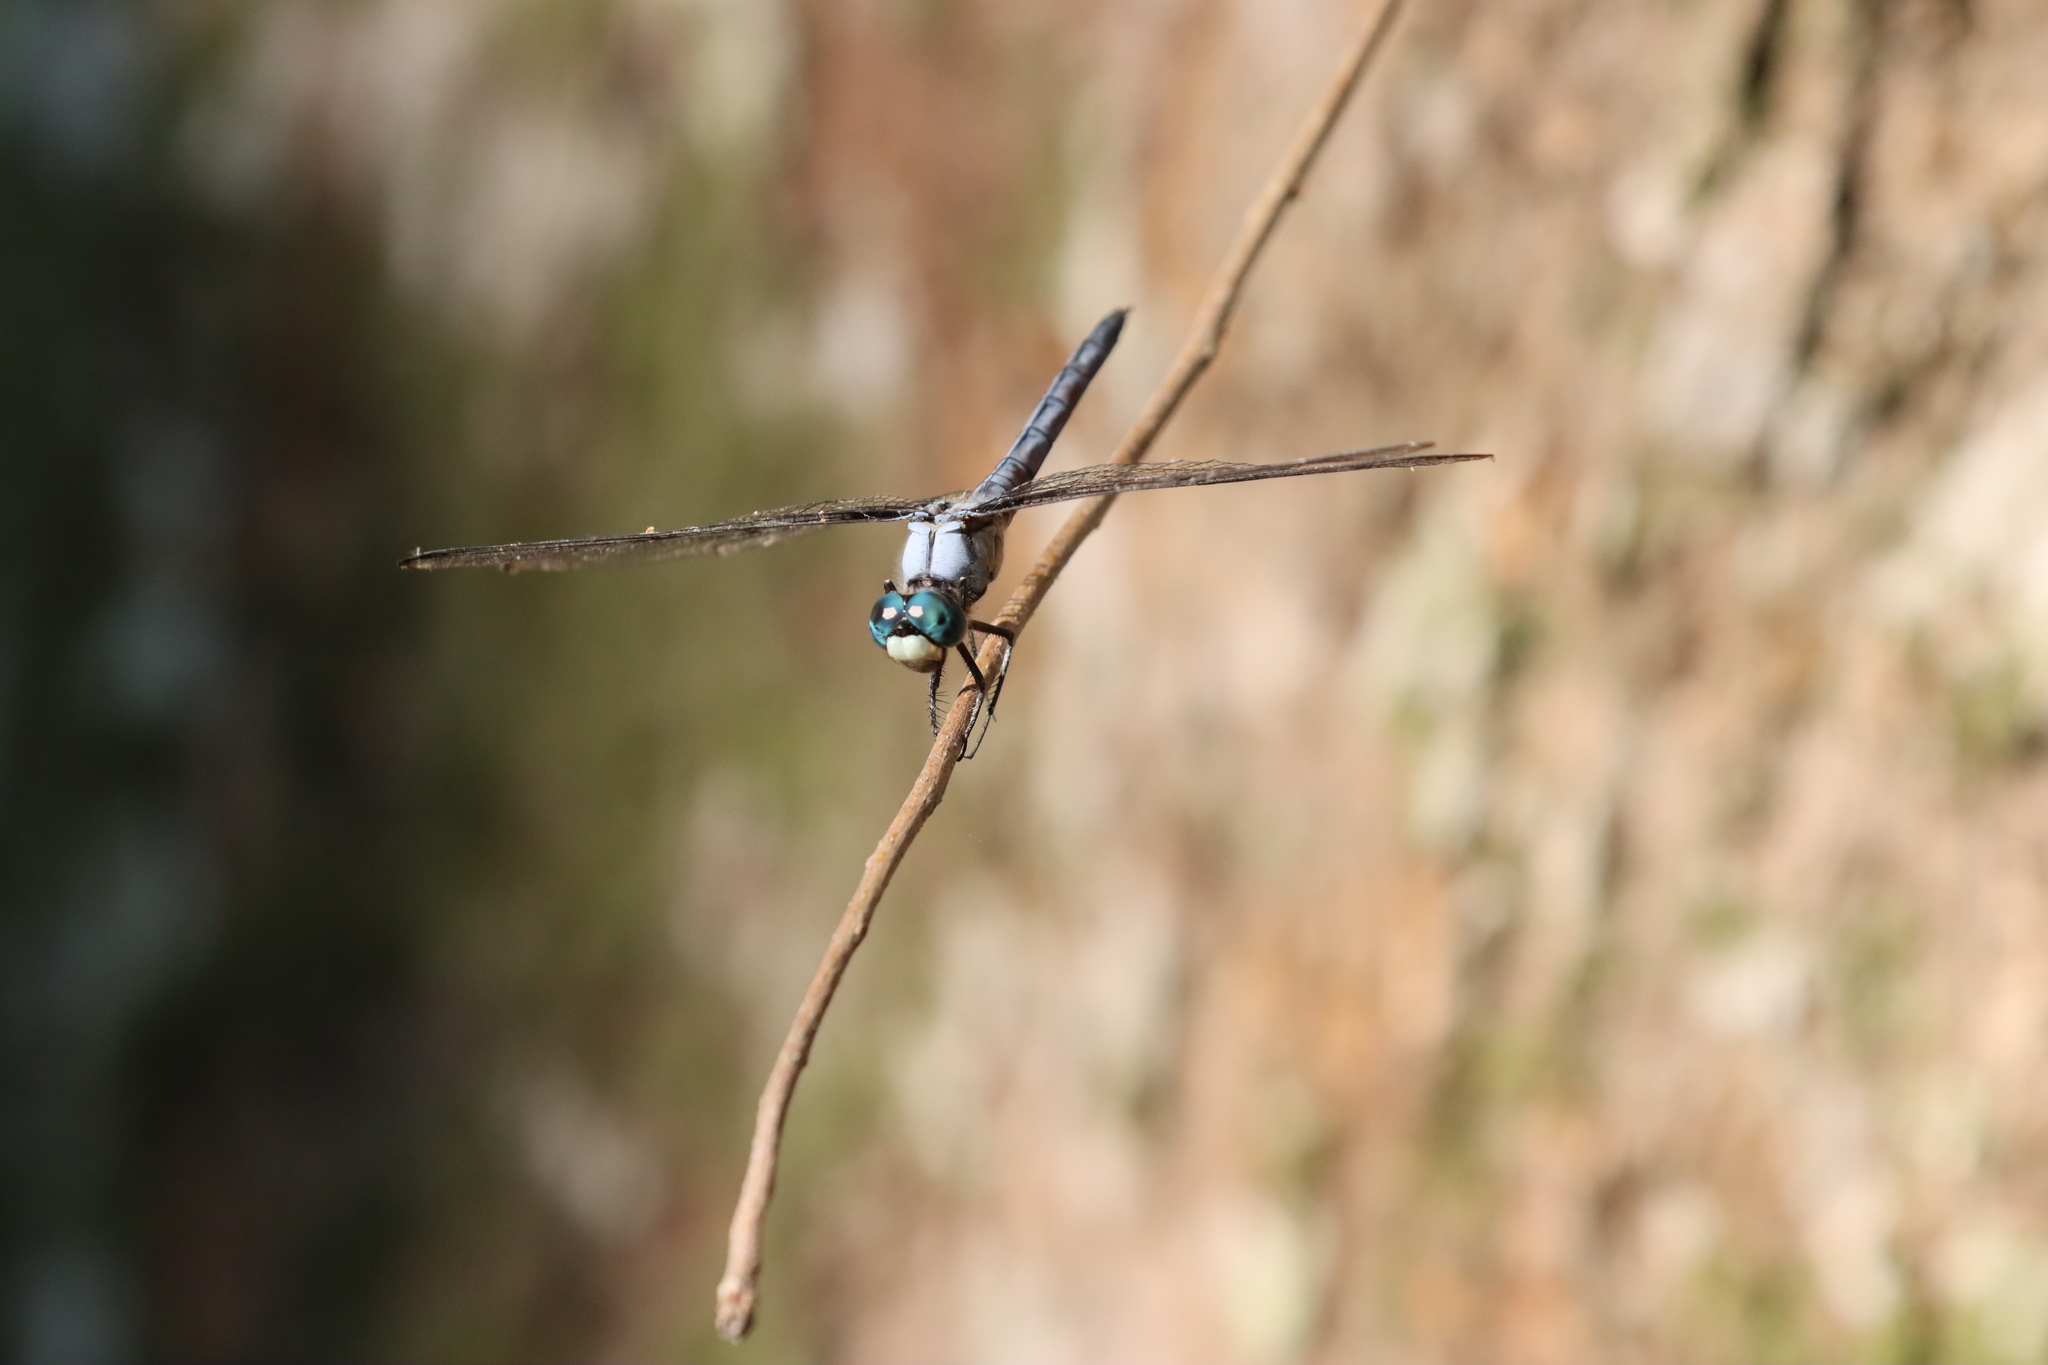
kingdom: Animalia
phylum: Arthropoda
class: Insecta
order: Odonata
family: Libellulidae
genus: Libellula
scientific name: Libellula vibrans
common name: Great blue skimmer
